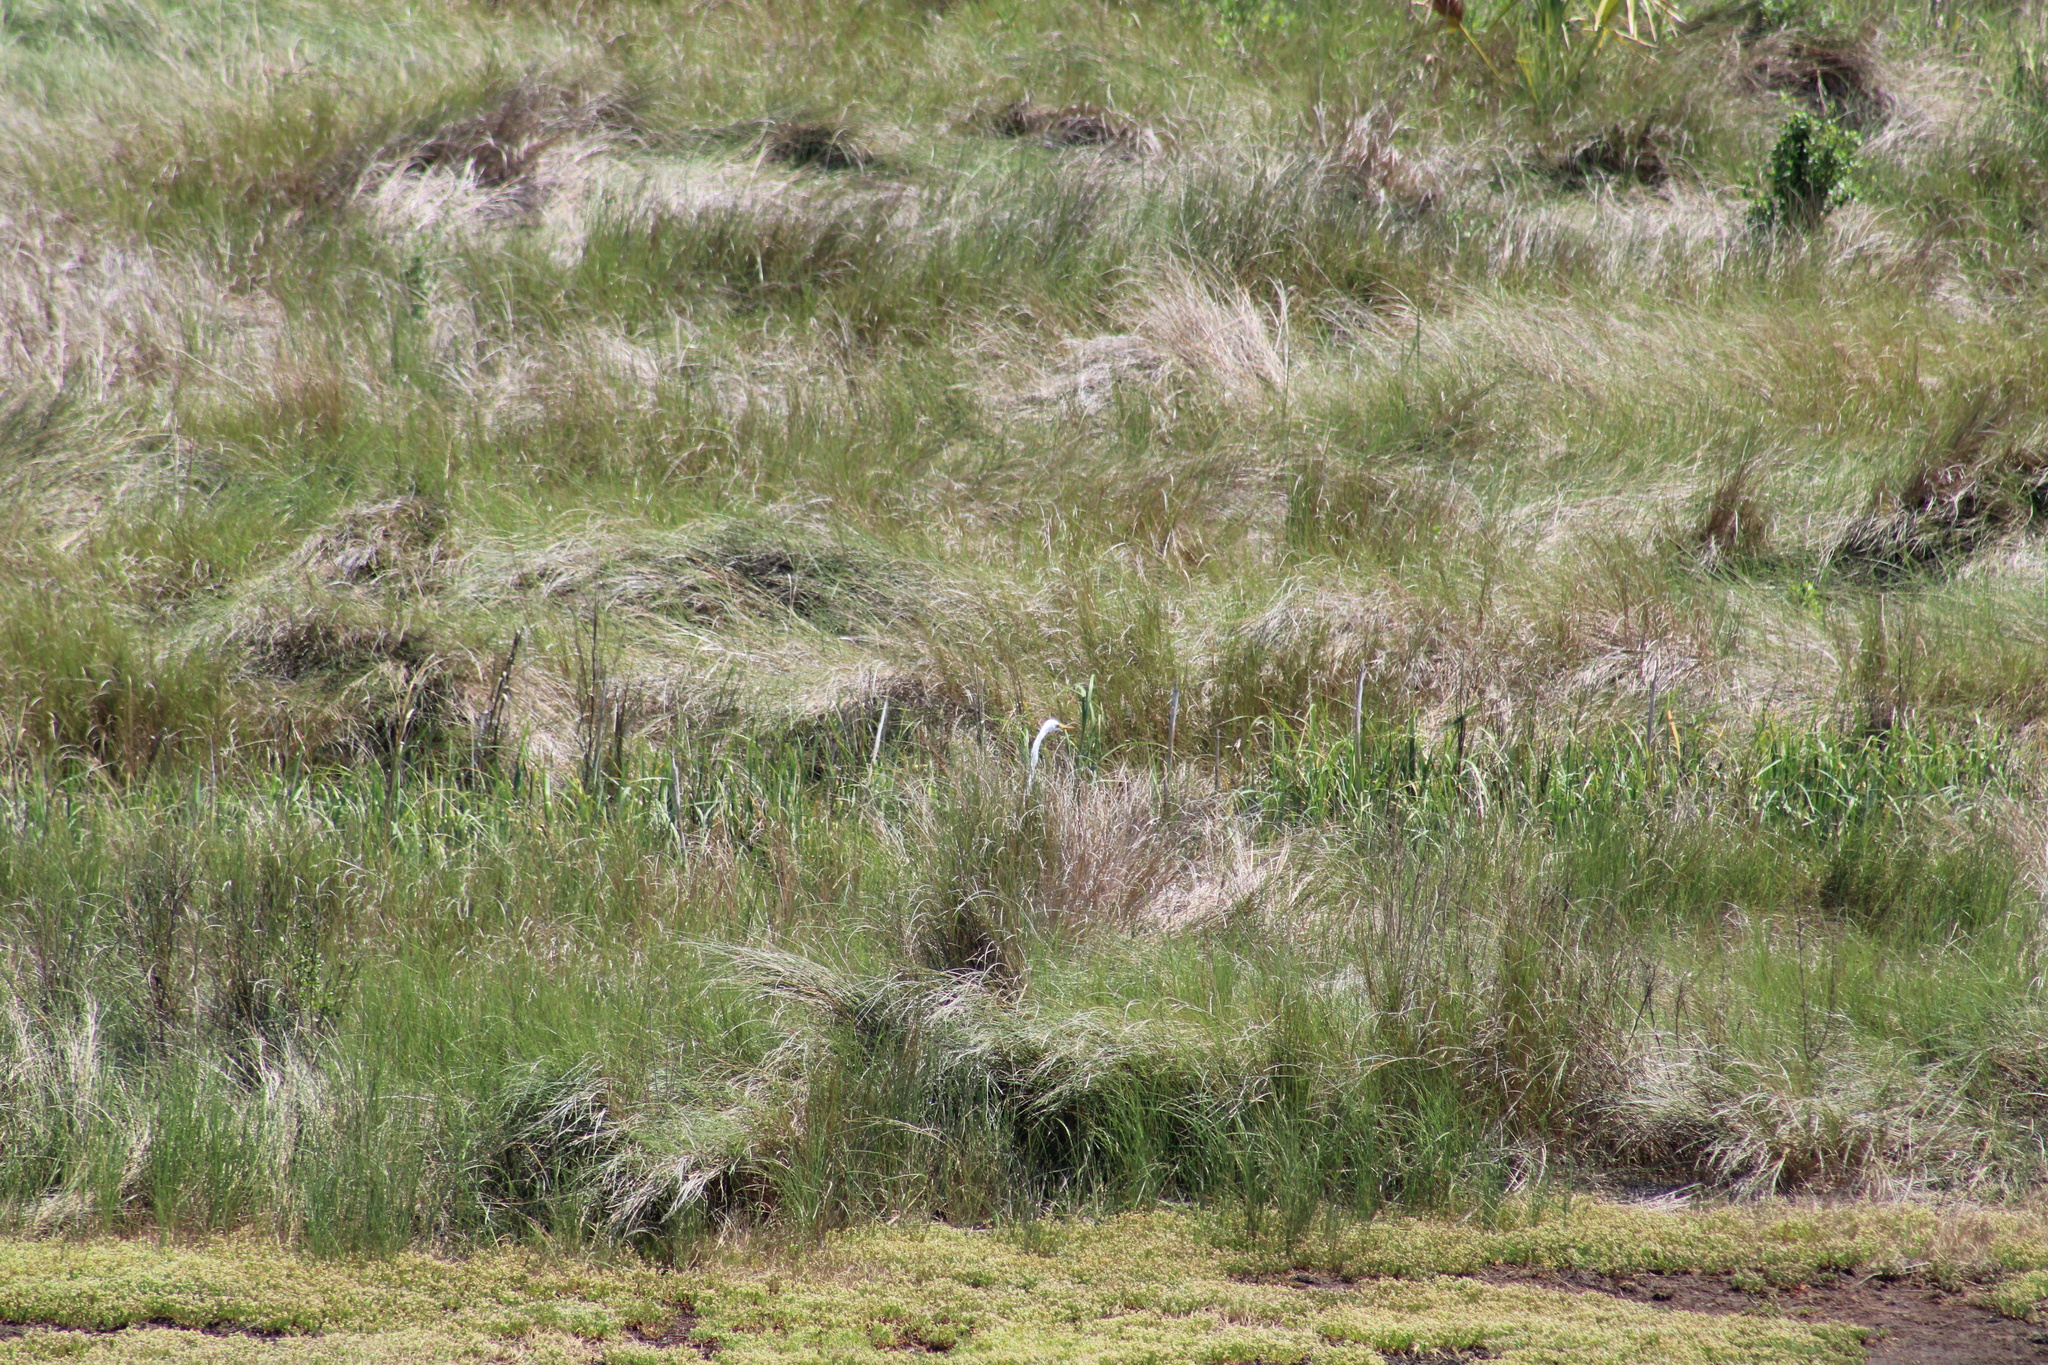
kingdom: Animalia
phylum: Chordata
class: Aves
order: Pelecaniformes
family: Ardeidae
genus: Ardea
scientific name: Ardea alba
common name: Great egret
